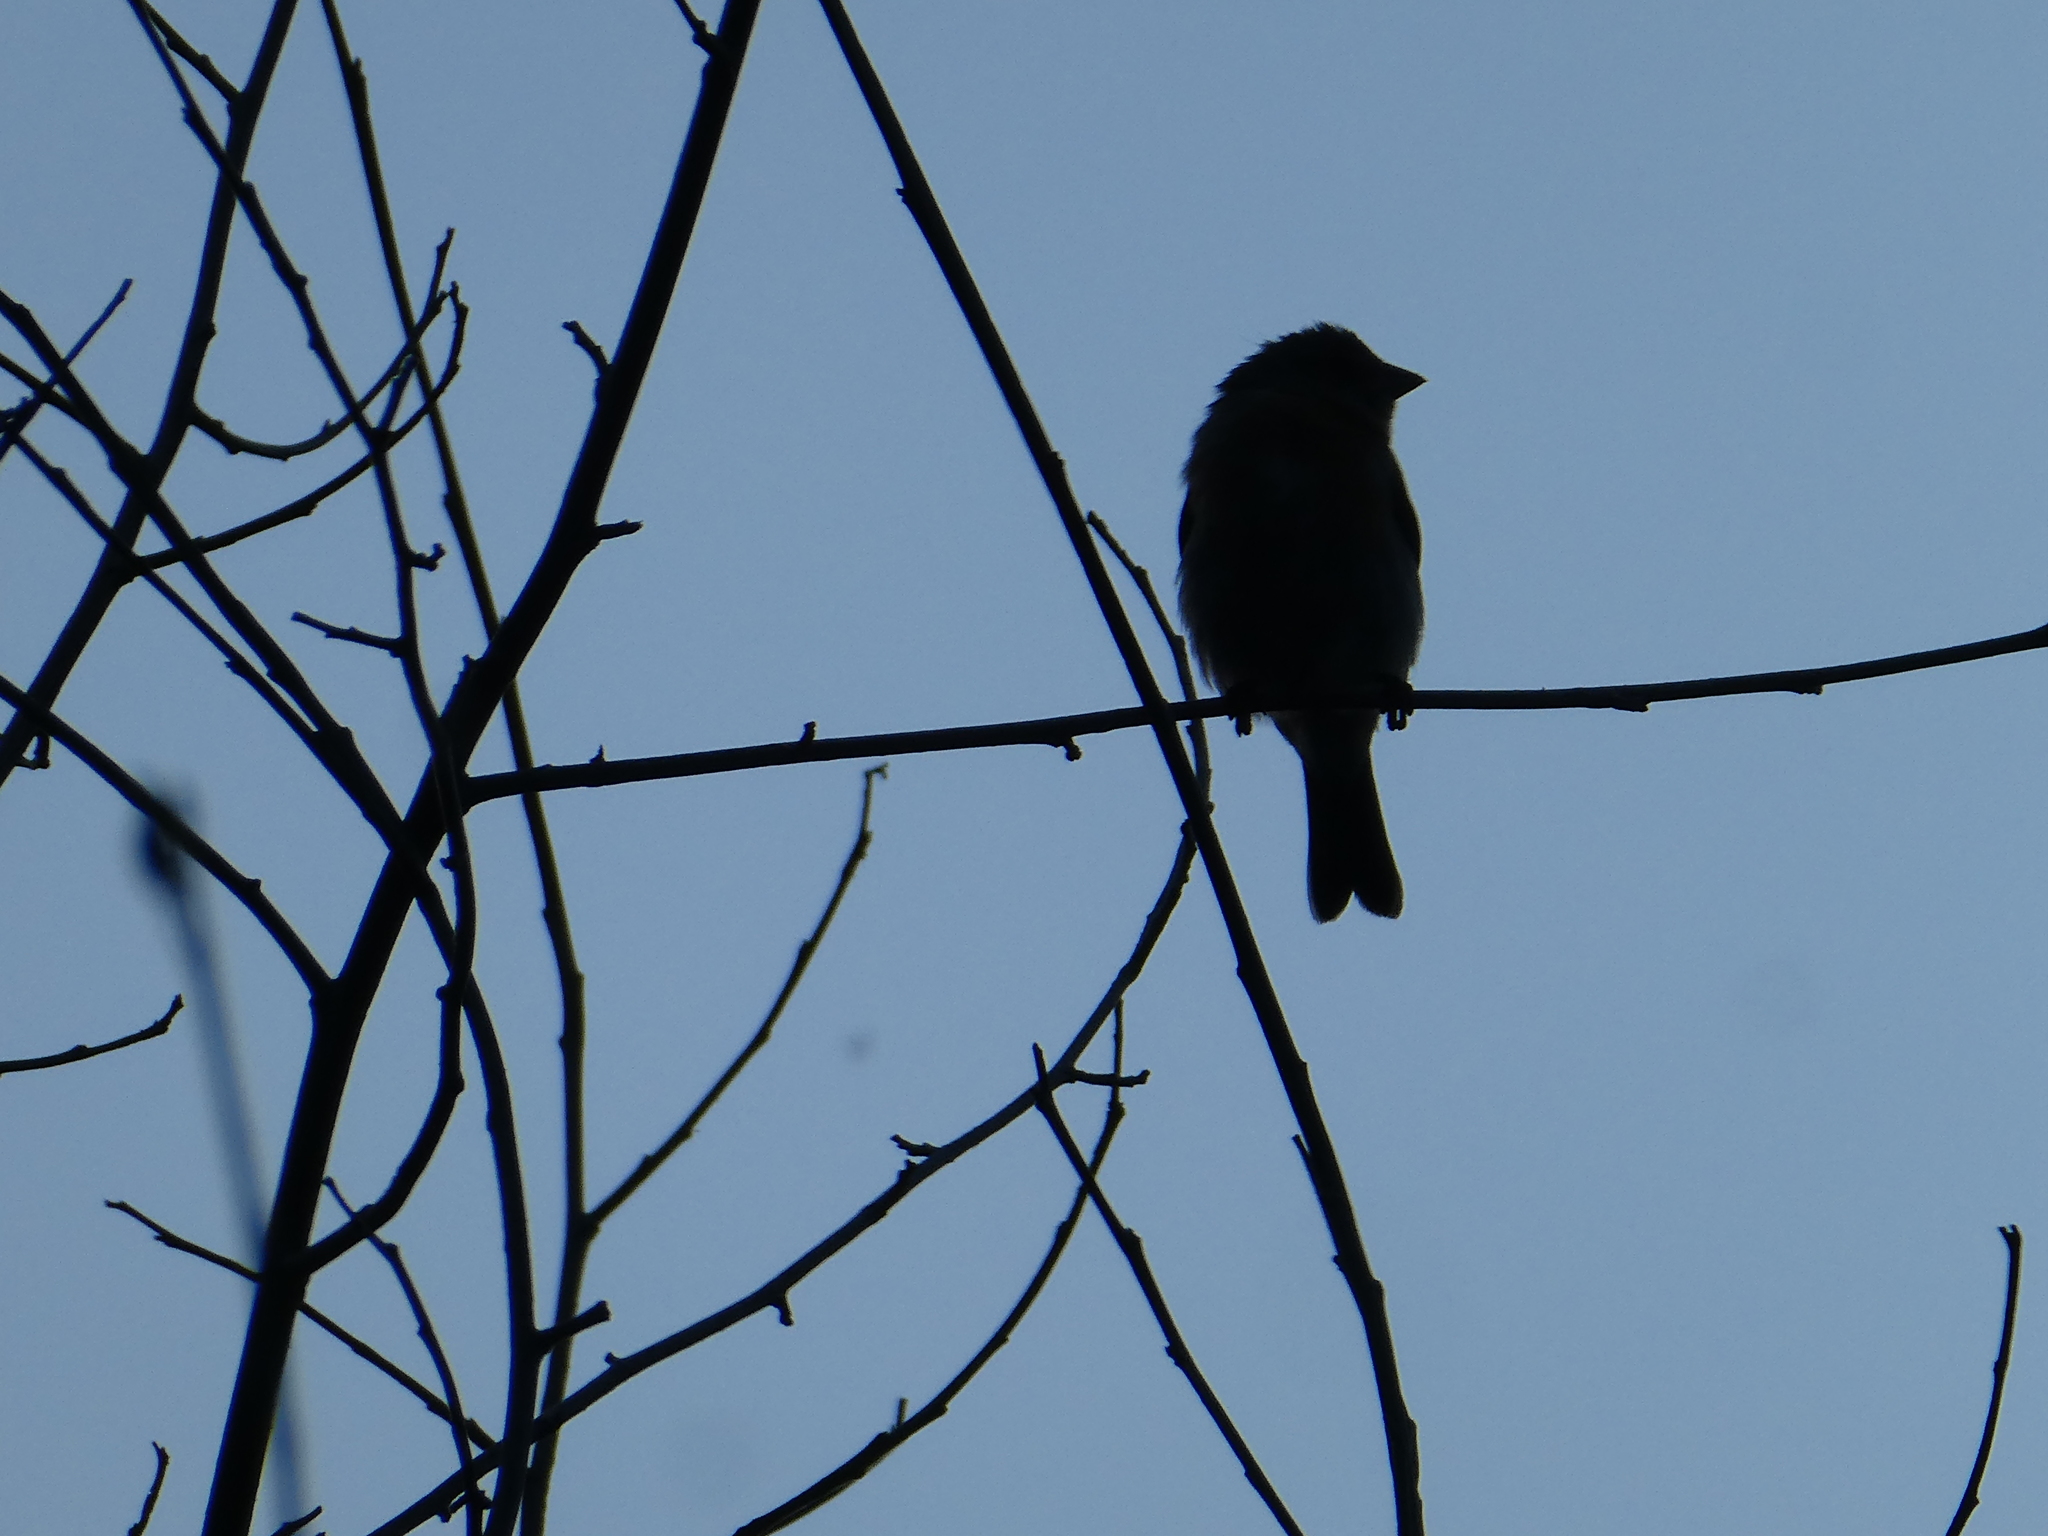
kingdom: Animalia
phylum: Chordata
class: Aves
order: Passeriformes
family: Cardinalidae
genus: Passerina
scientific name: Passerina amoena
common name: Lazuli bunting
